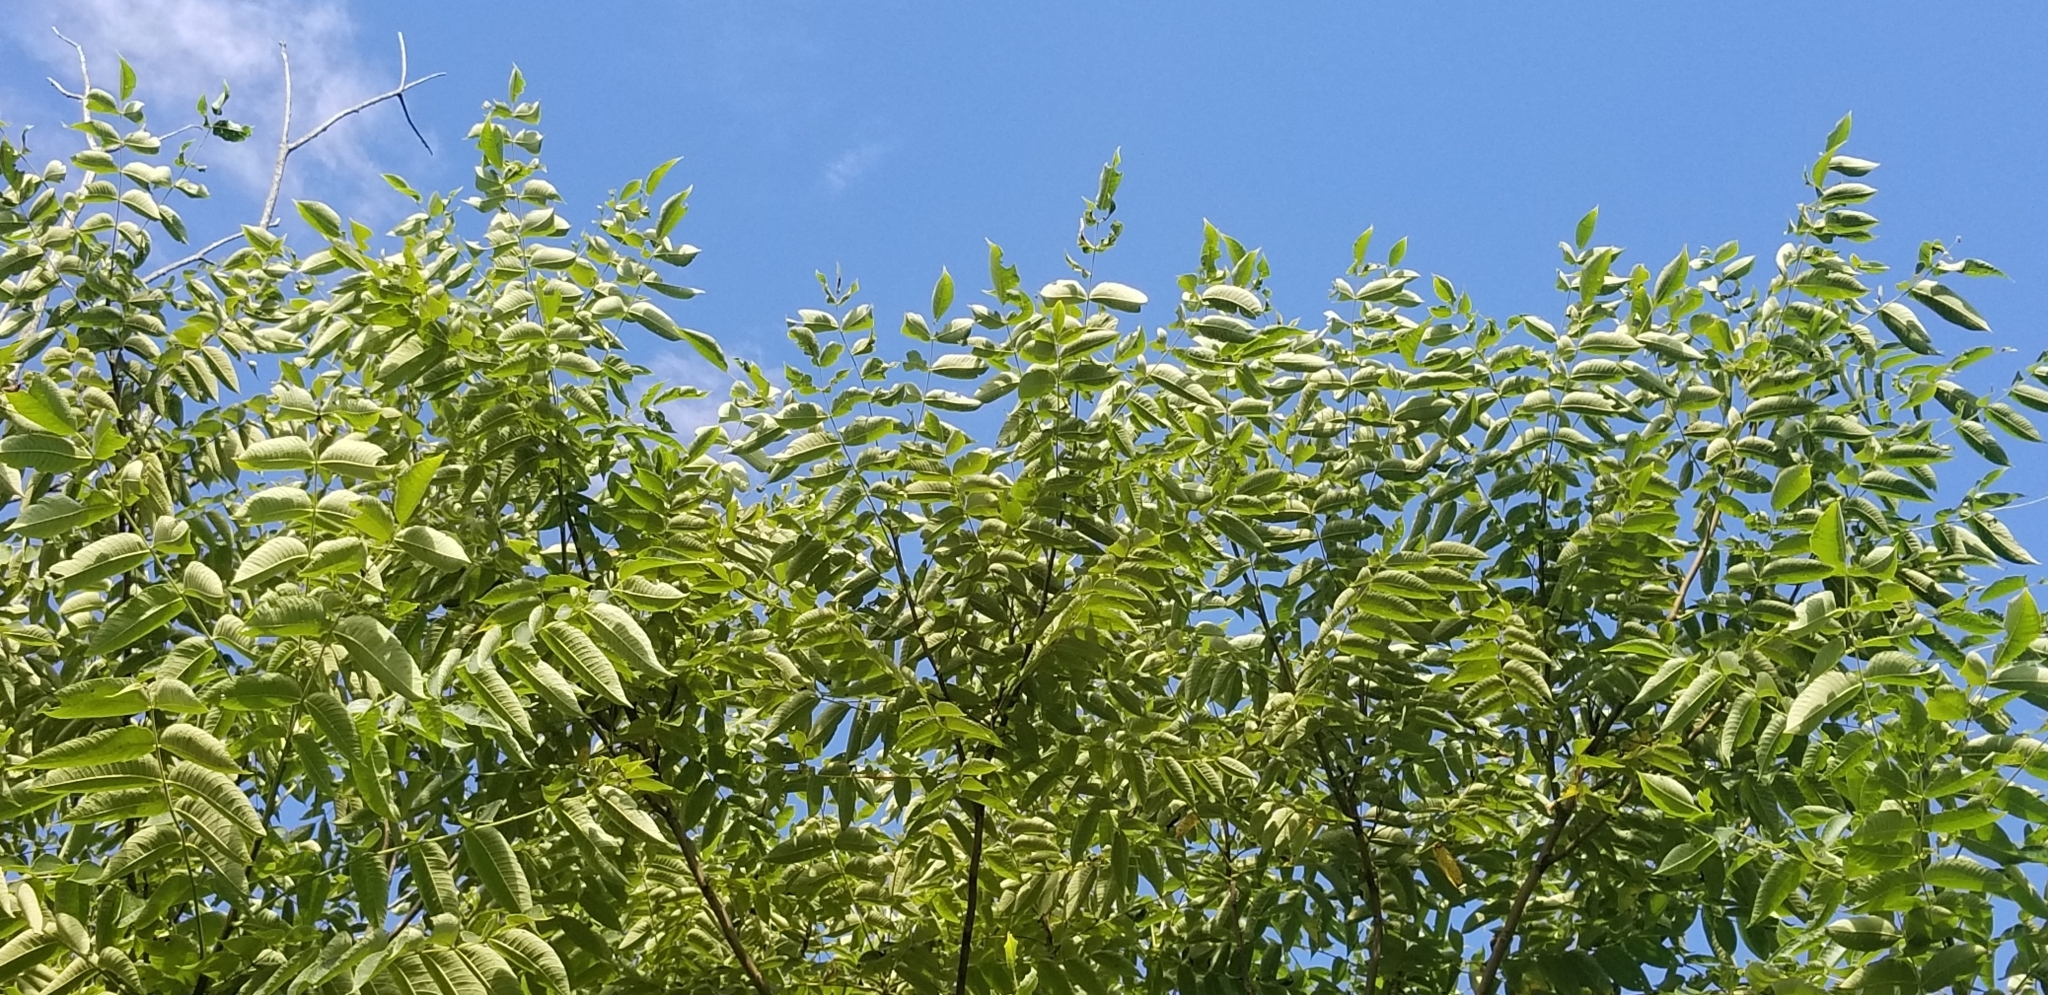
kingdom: Plantae
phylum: Tracheophyta
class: Magnoliopsida
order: Fagales
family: Juglandaceae
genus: Juglans
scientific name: Juglans cinerea
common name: Butternut
